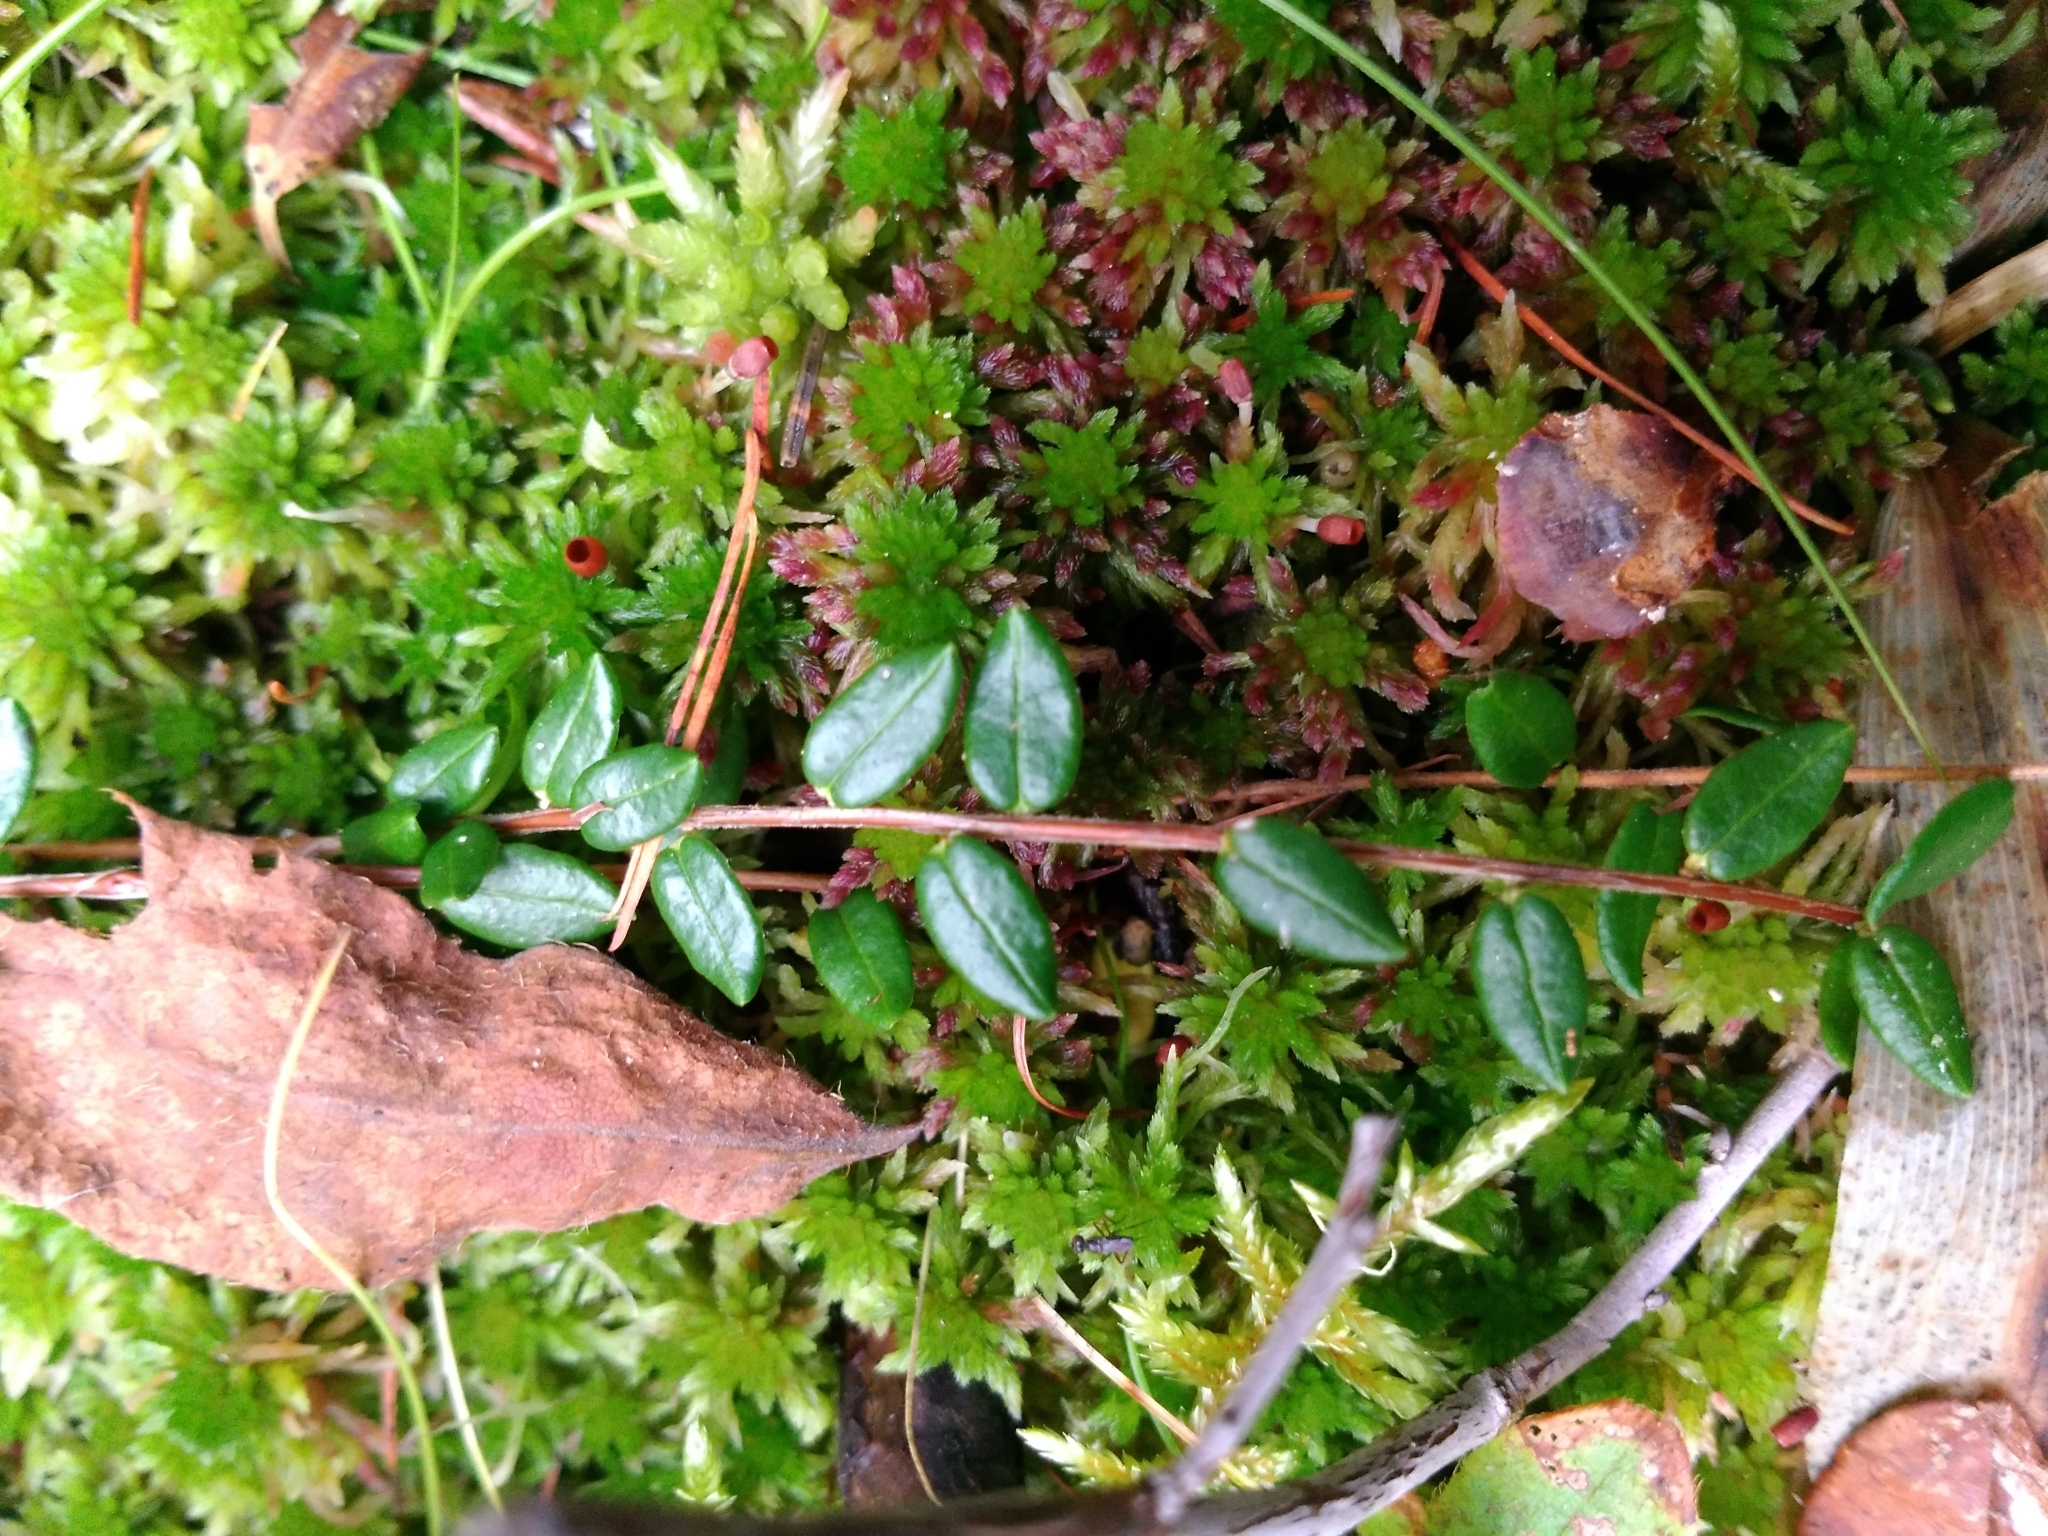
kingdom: Plantae
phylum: Tracheophyta
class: Magnoliopsida
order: Ericales
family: Ericaceae
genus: Vaccinium
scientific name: Vaccinium oxycoccos
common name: Cranberry
